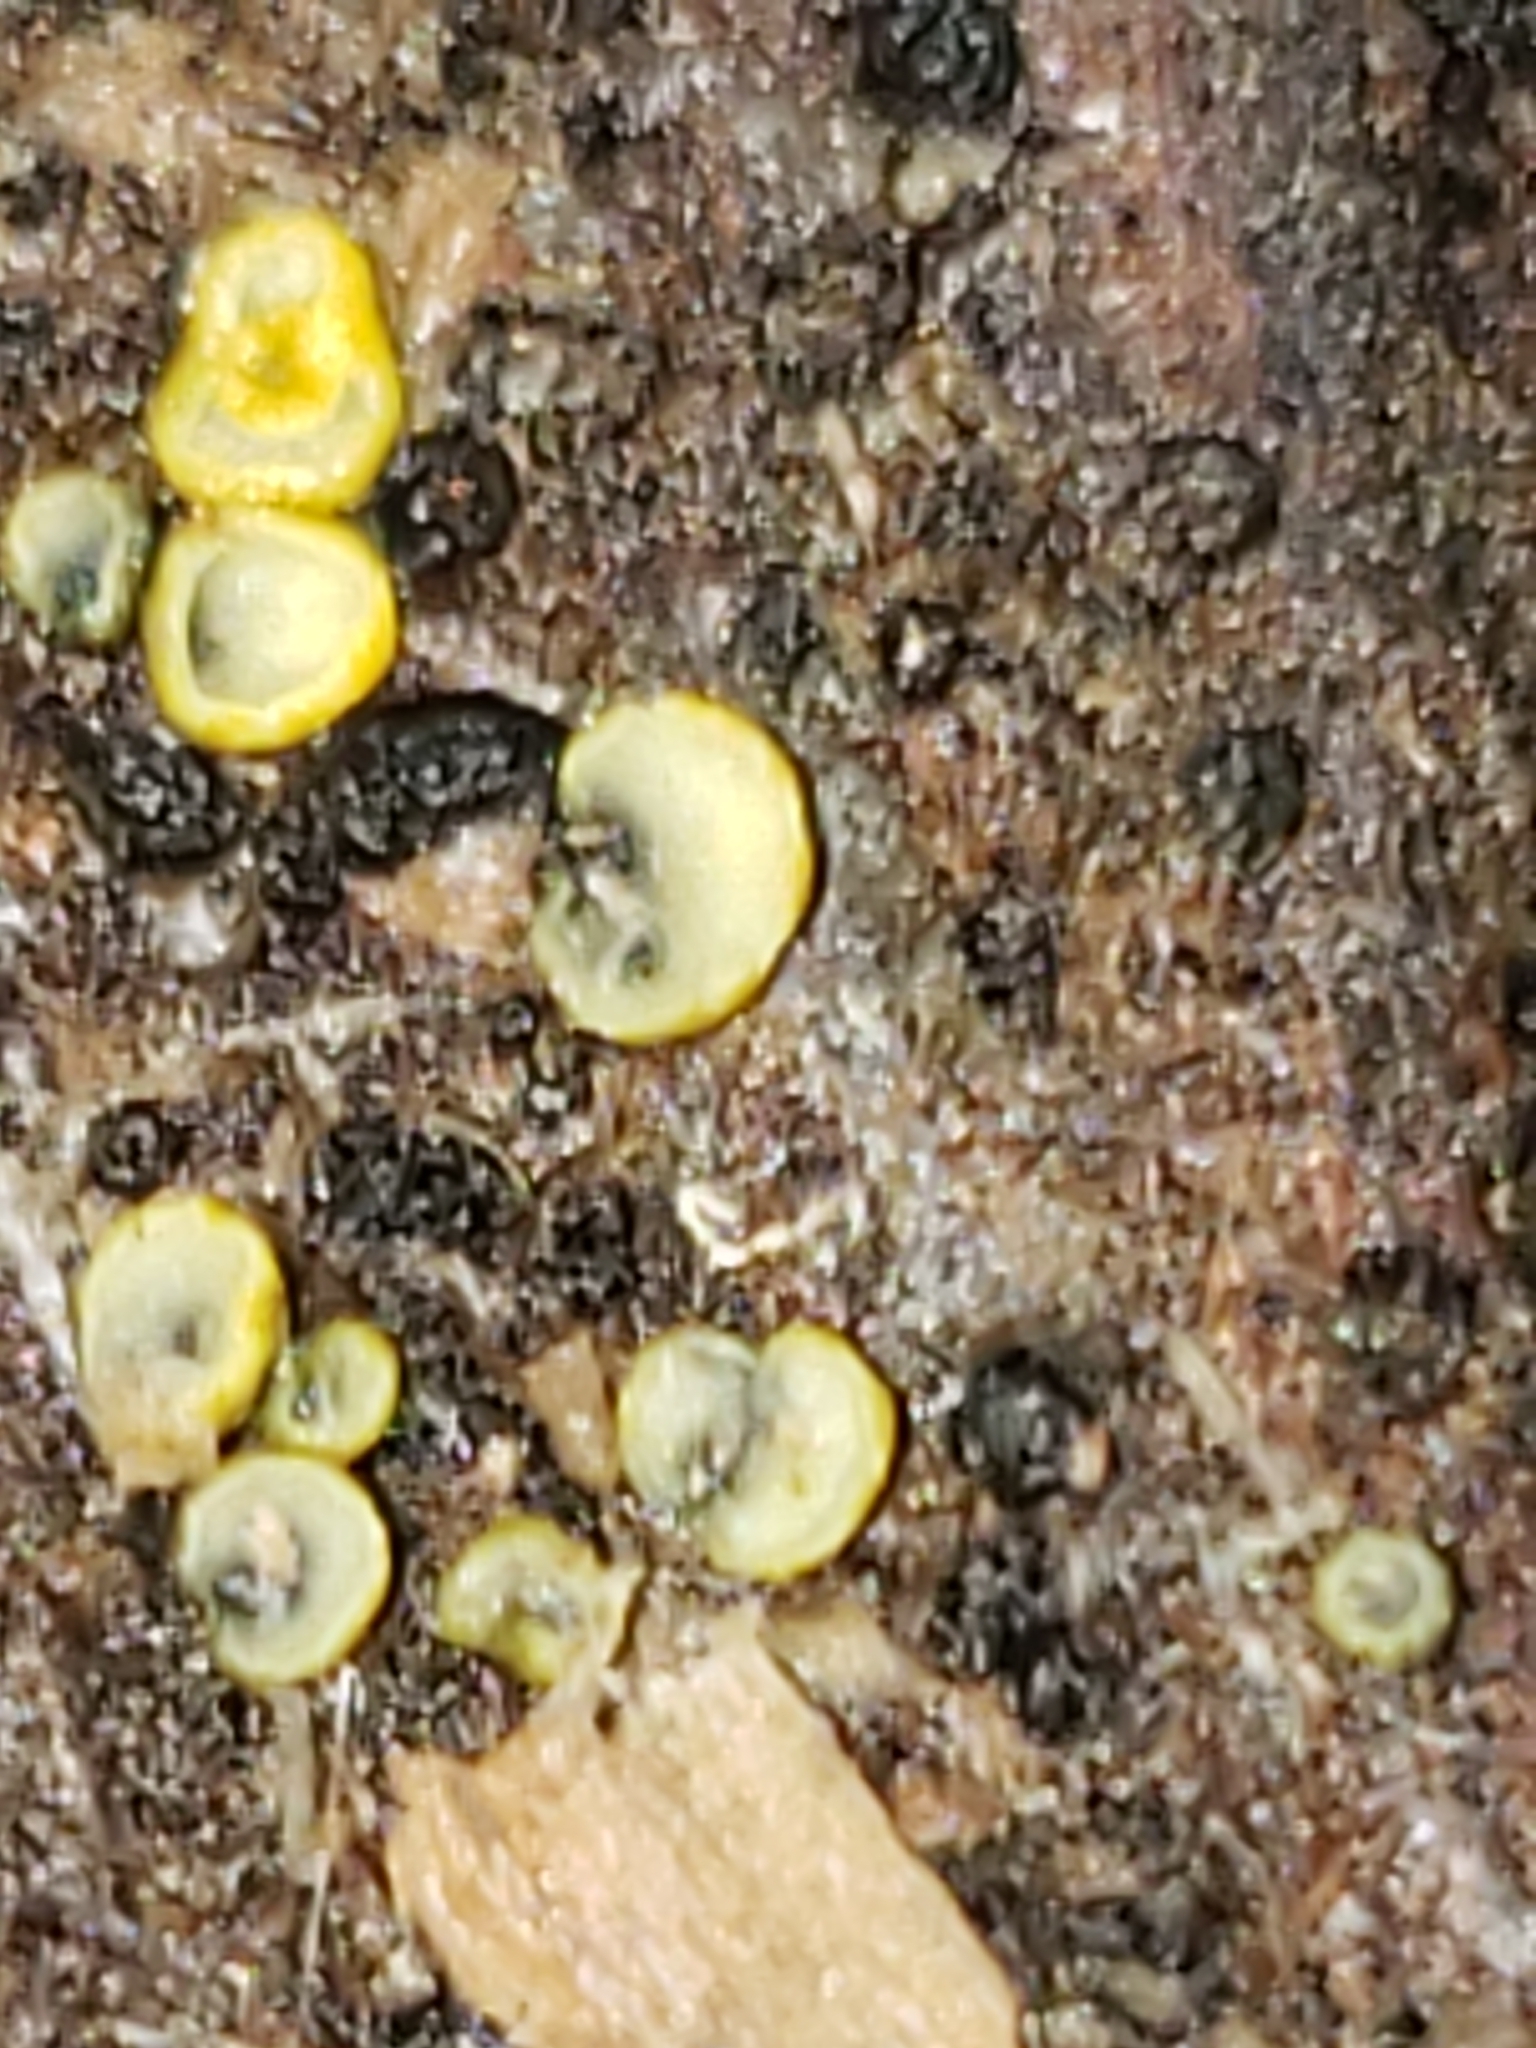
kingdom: Fungi
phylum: Ascomycota
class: Leotiomycetes
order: Helotiales
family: Chlorospleniaceae
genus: Chlorosplenium
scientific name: Chlorosplenium chlora
